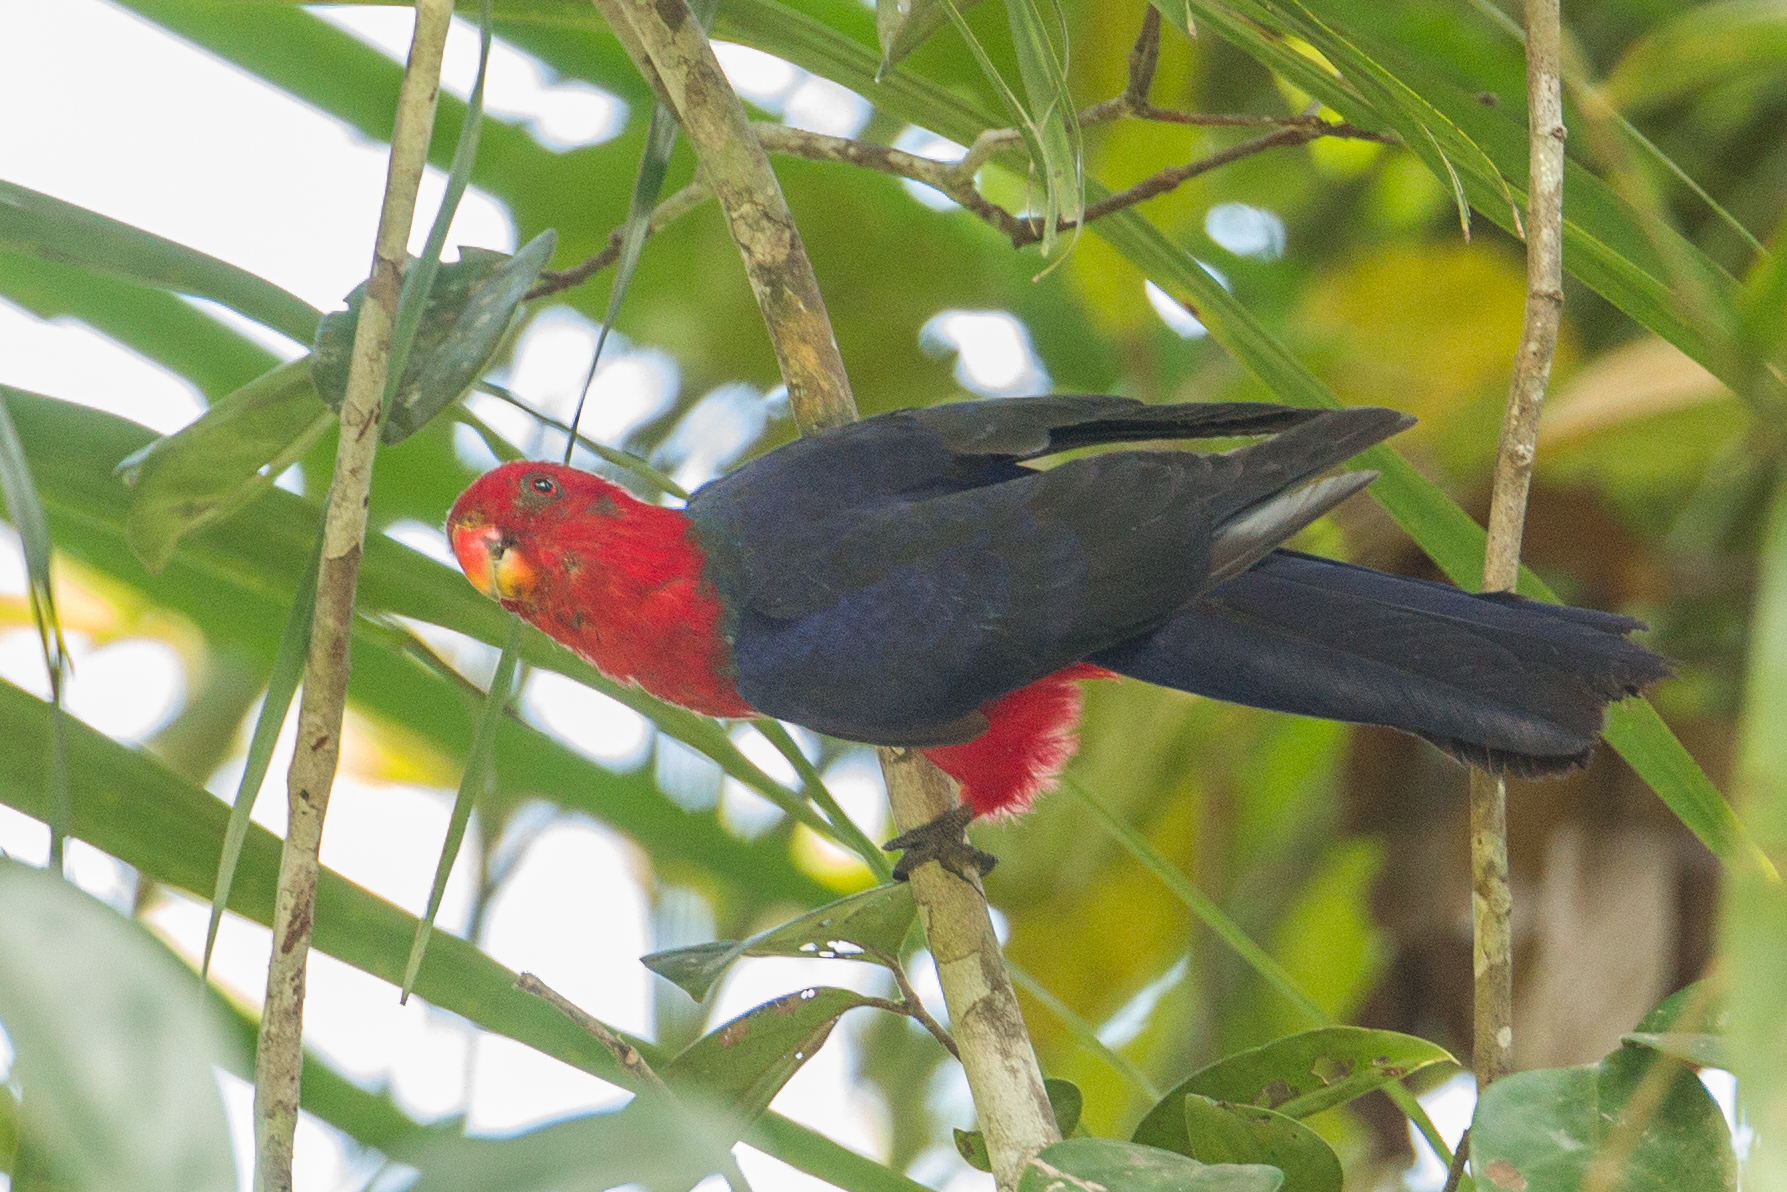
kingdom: Animalia
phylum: Chordata
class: Aves
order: Psittaciformes
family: Psittacidae
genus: Alisterus
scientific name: Alisterus amboinensis
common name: Moluccan king parrot
